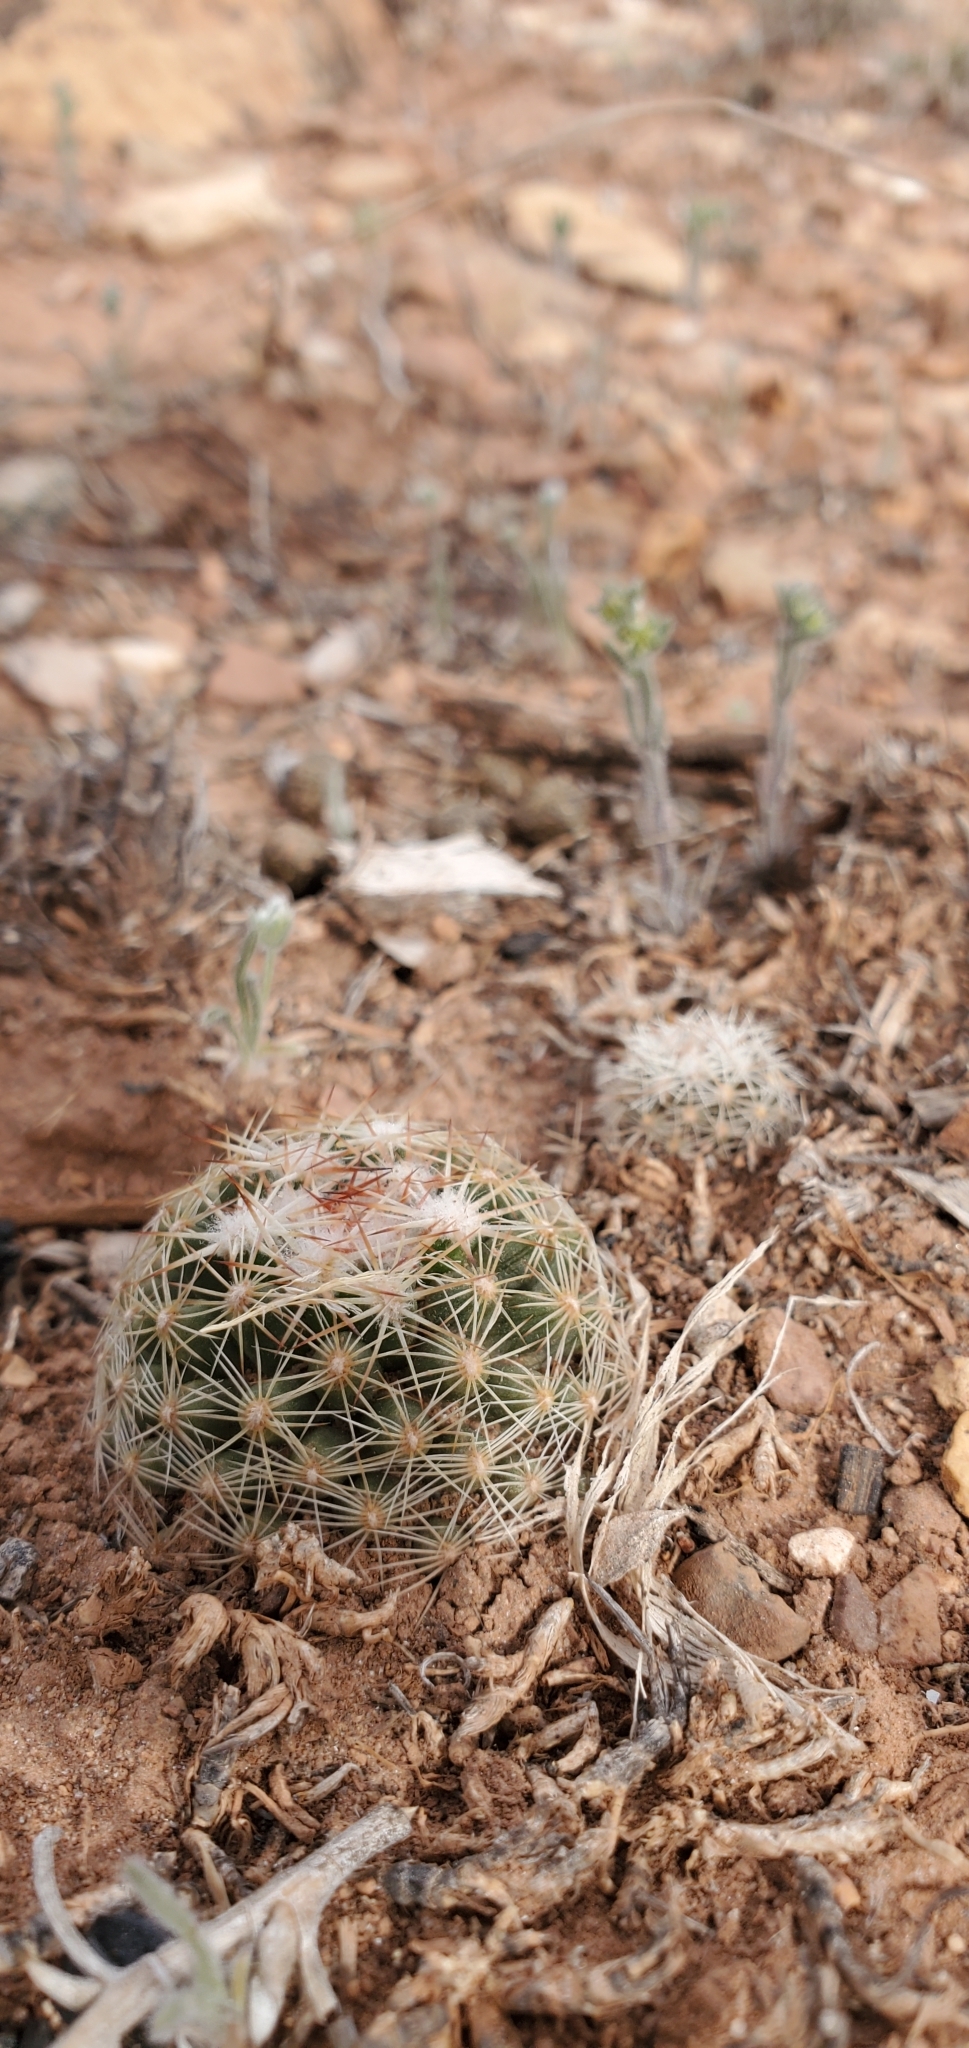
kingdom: Plantae
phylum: Tracheophyta
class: Magnoliopsida
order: Caryophyllales
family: Cactaceae
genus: Pelecyphora
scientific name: Pelecyphora vivipara
